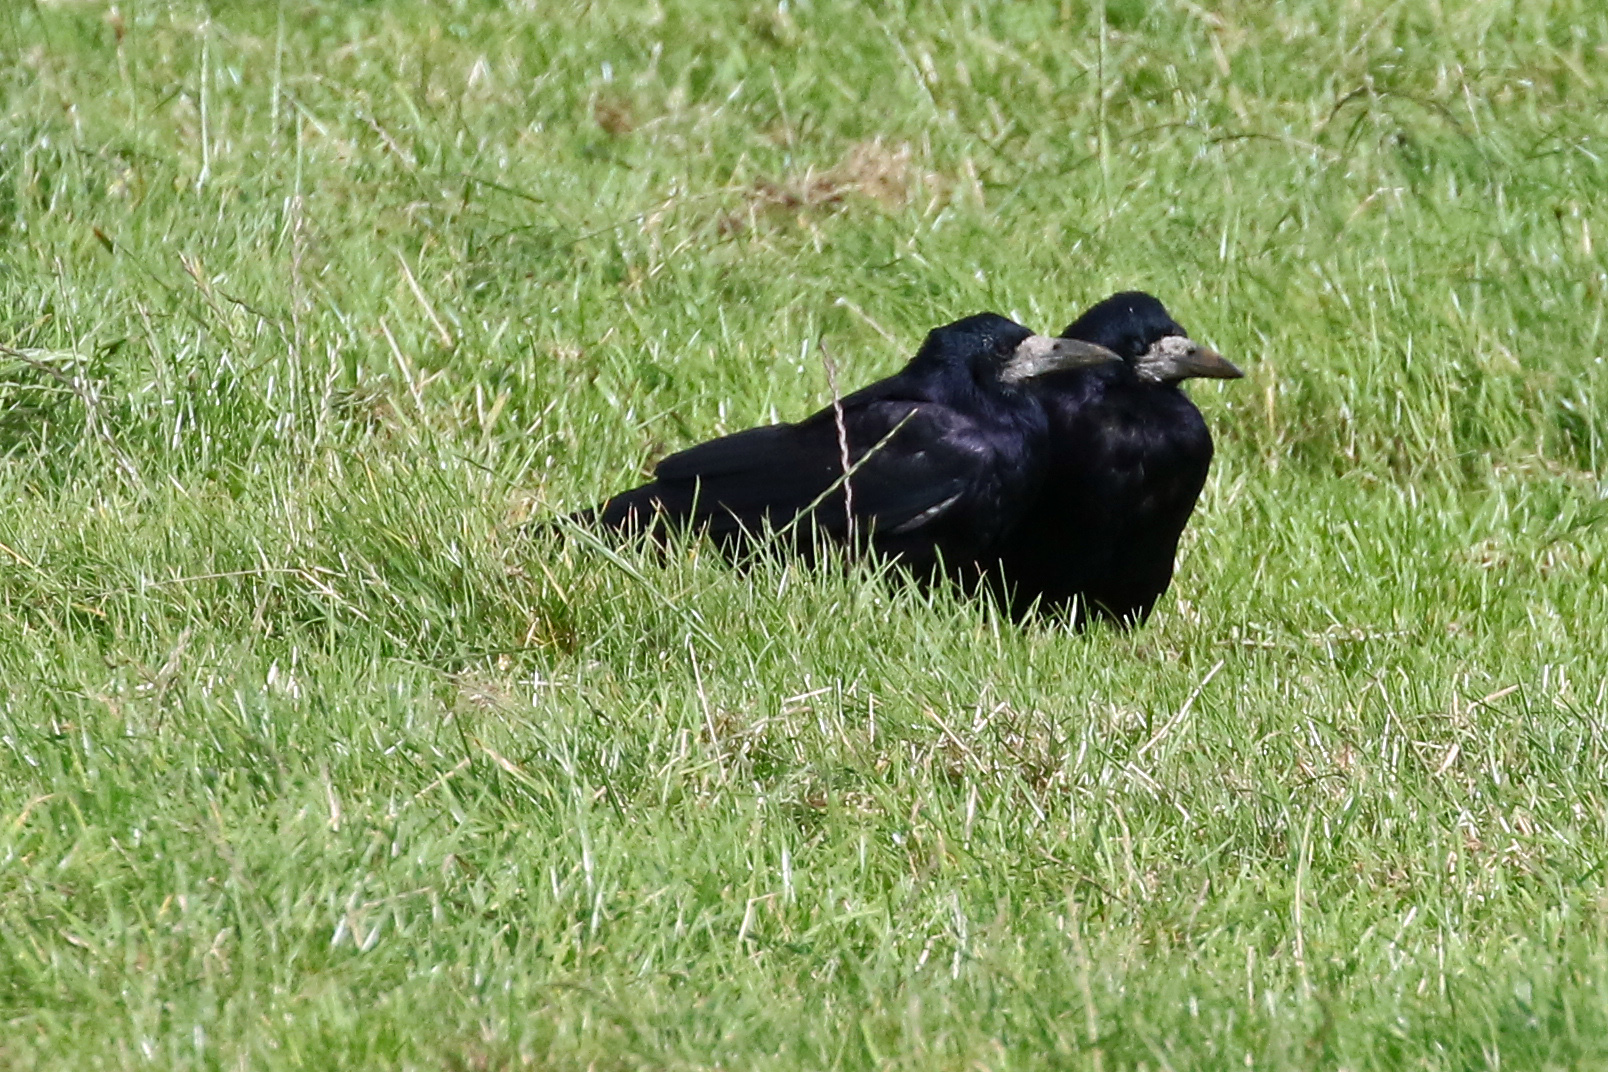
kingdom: Animalia
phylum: Chordata
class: Aves
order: Passeriformes
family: Corvidae
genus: Corvus
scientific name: Corvus frugilegus
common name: Rook
